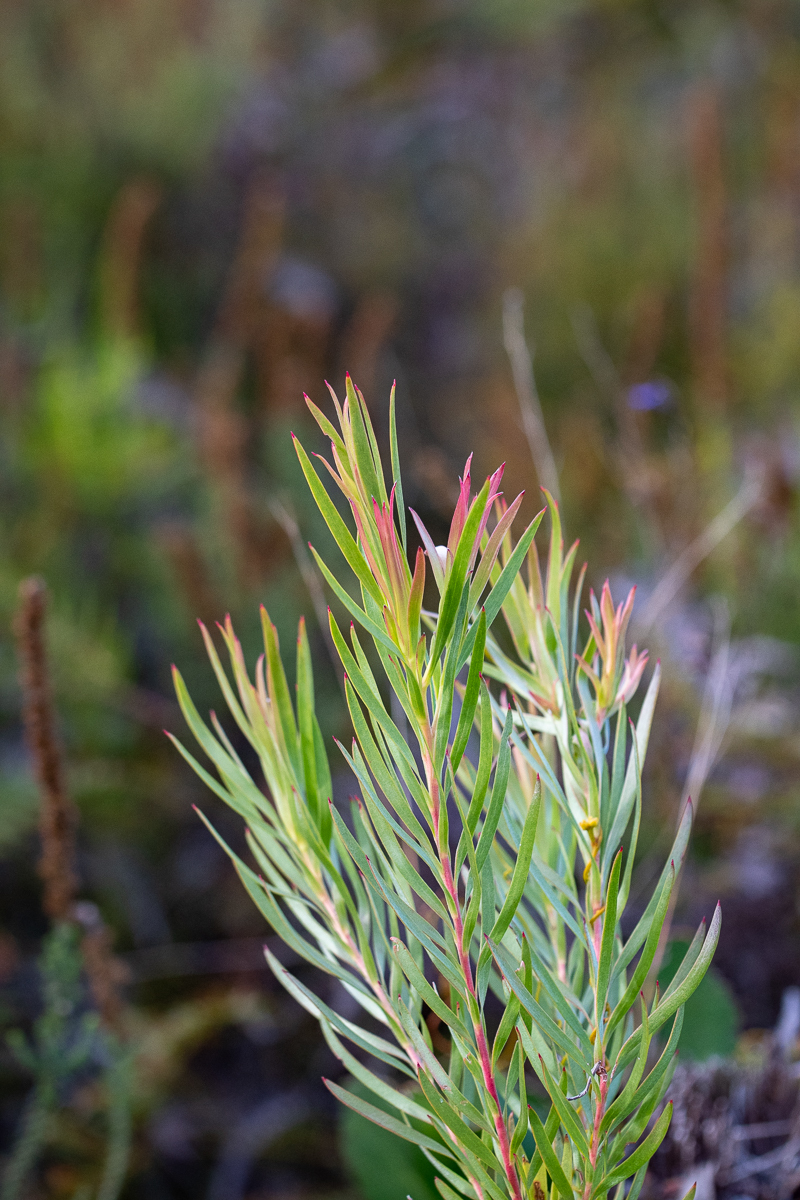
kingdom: Plantae
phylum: Tracheophyta
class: Magnoliopsida
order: Proteales
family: Proteaceae
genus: Leucadendron
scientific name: Leucadendron xanthoconus
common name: Sickle-leaf conebush
